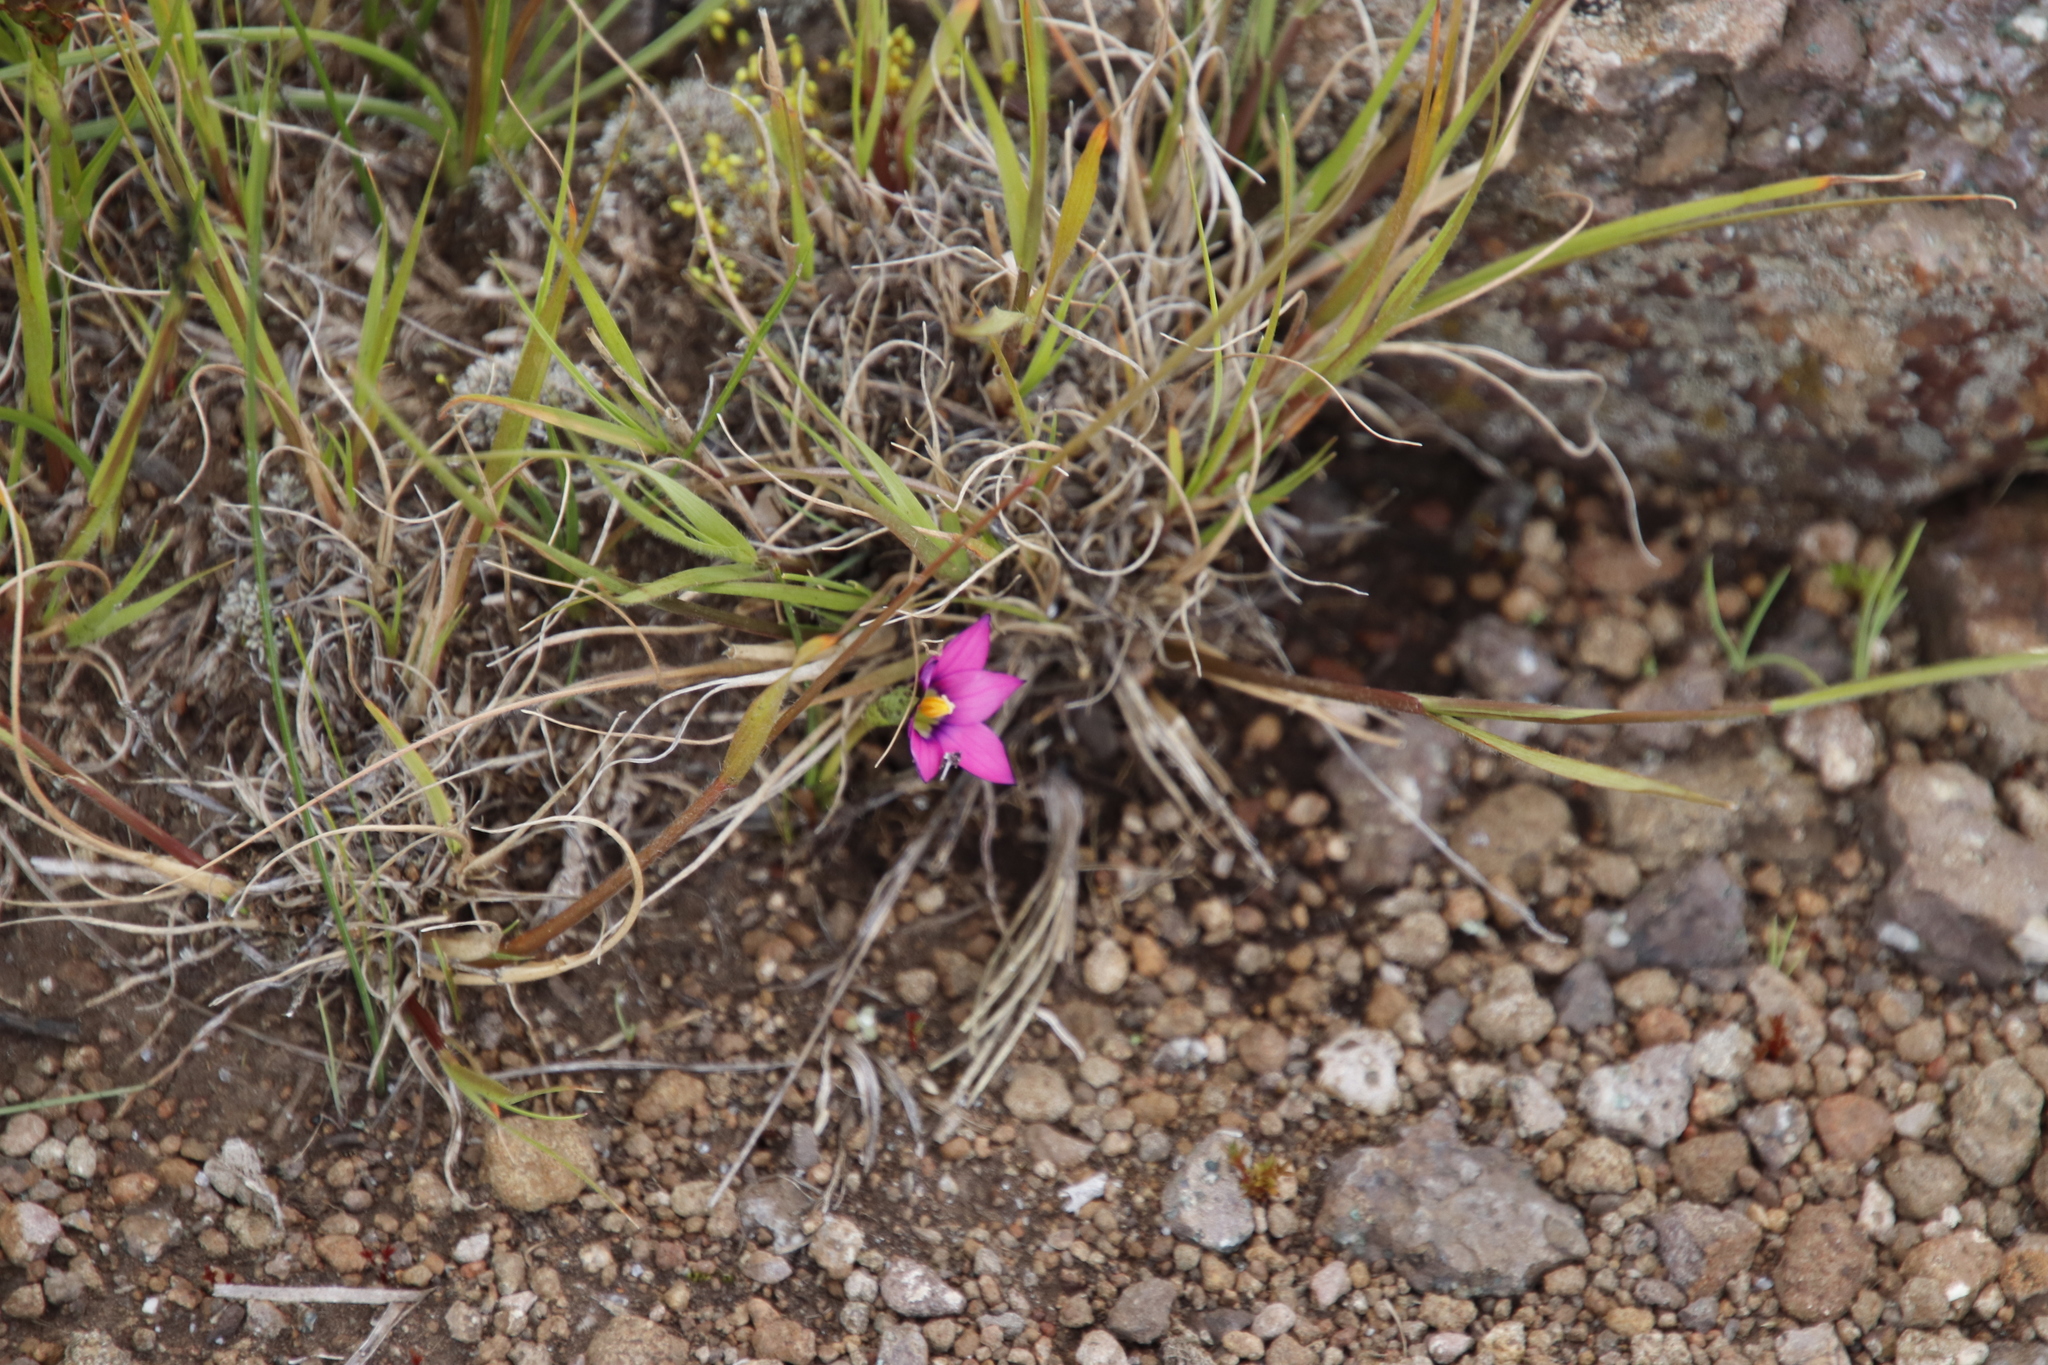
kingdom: Plantae
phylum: Tracheophyta
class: Liliopsida
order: Asparagales
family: Iridaceae
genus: Romulea
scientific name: Romulea camerooniana
